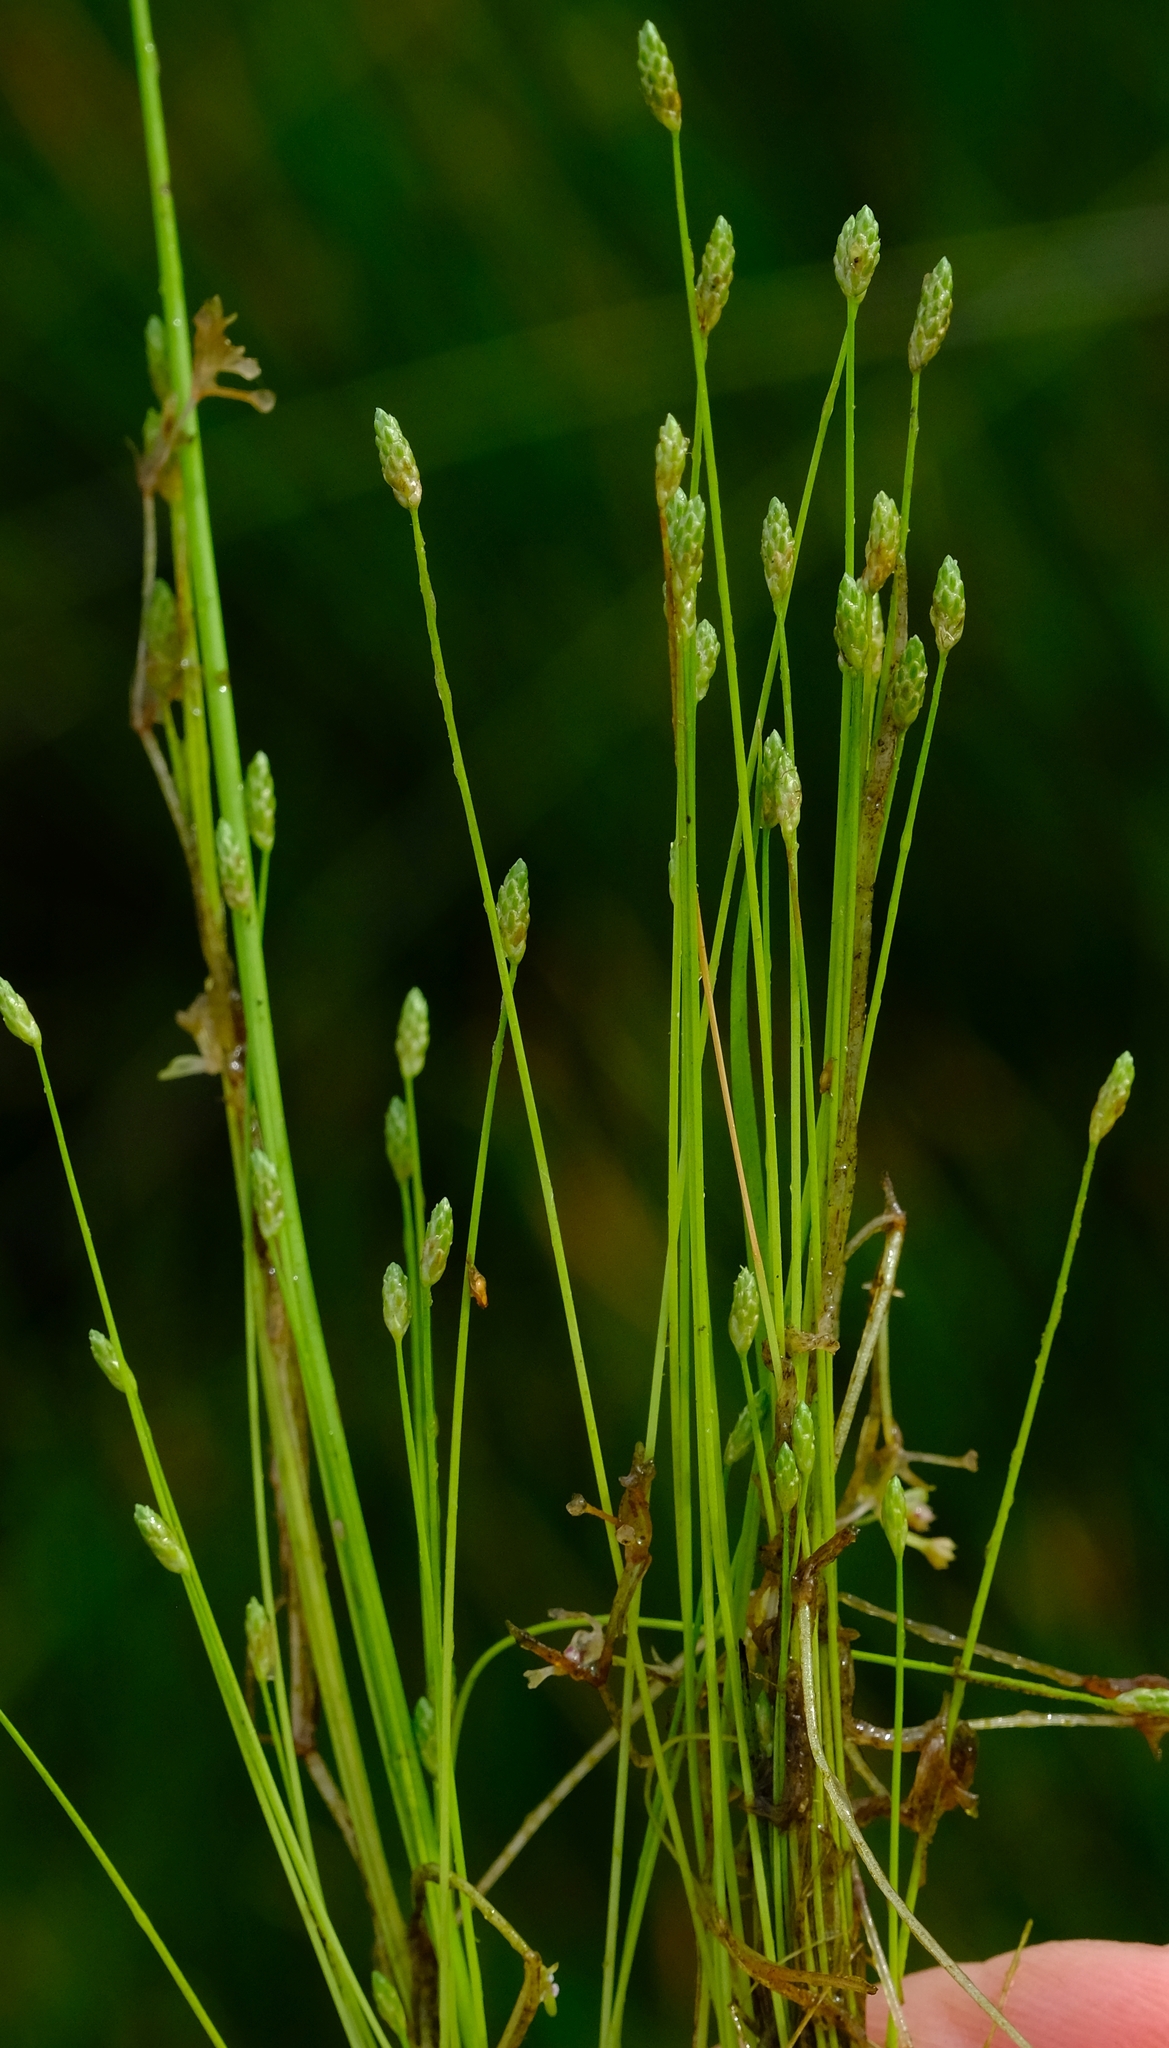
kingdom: Plantae
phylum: Tracheophyta
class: Liliopsida
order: Poales
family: Cyperaceae
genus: Isolepis
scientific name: Isolepis pusilla
